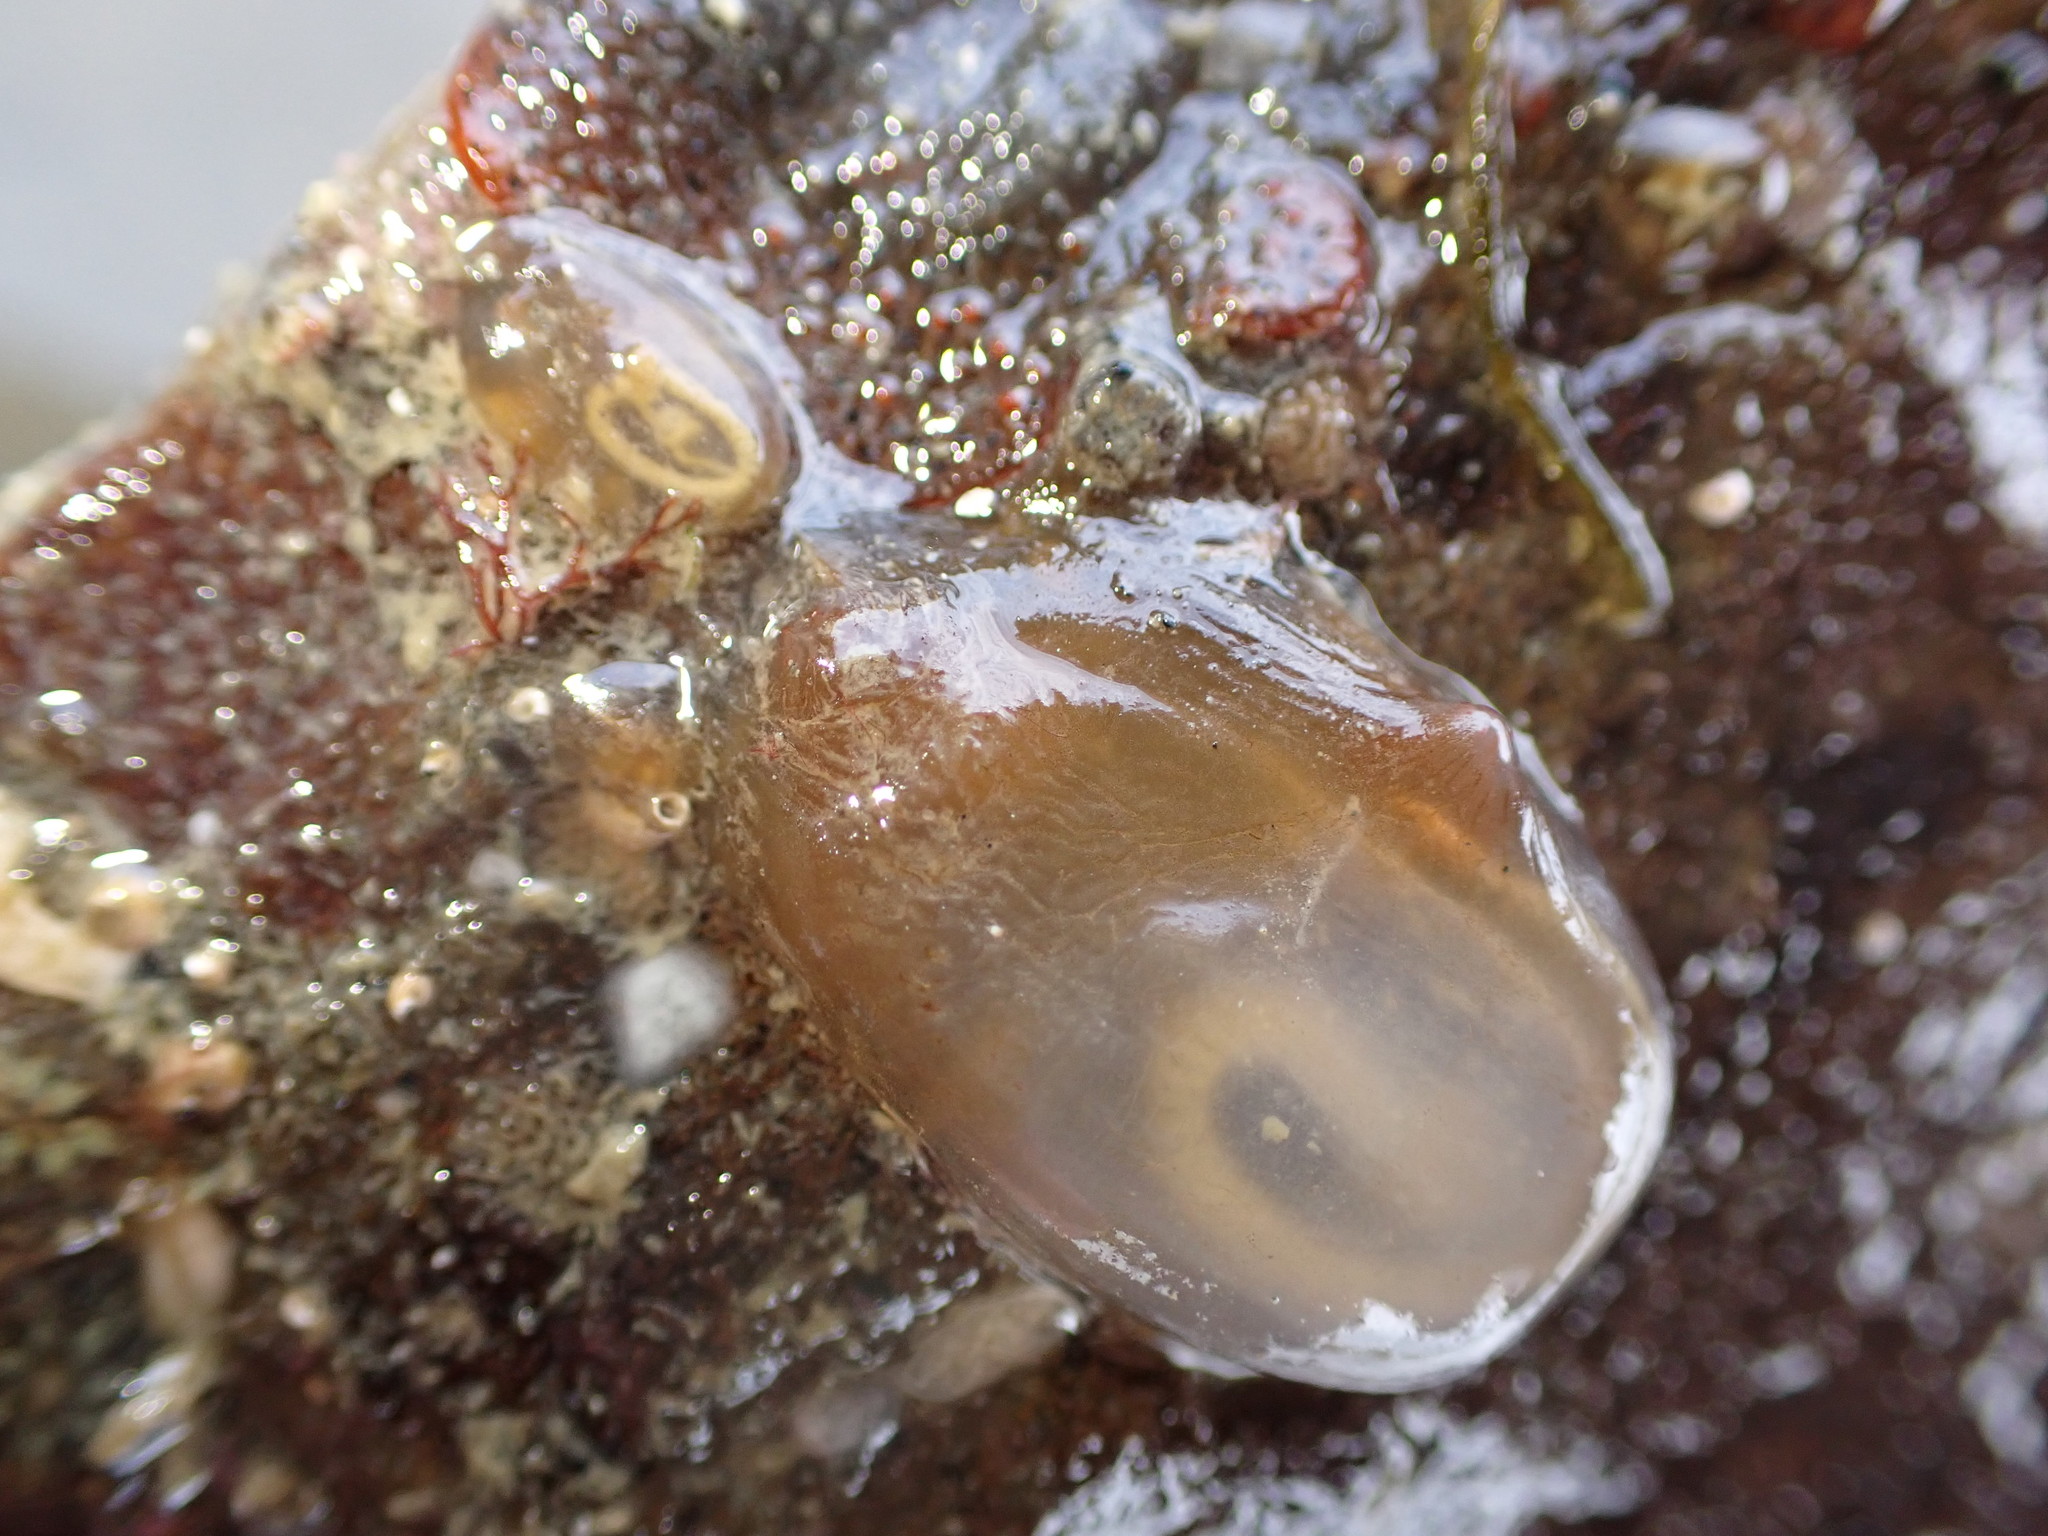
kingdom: Animalia
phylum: Chordata
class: Ascidiacea
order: Phlebobranchia
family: Corellidae
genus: Corella
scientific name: Corella eumyota
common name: Orange-tipped sea squirt
